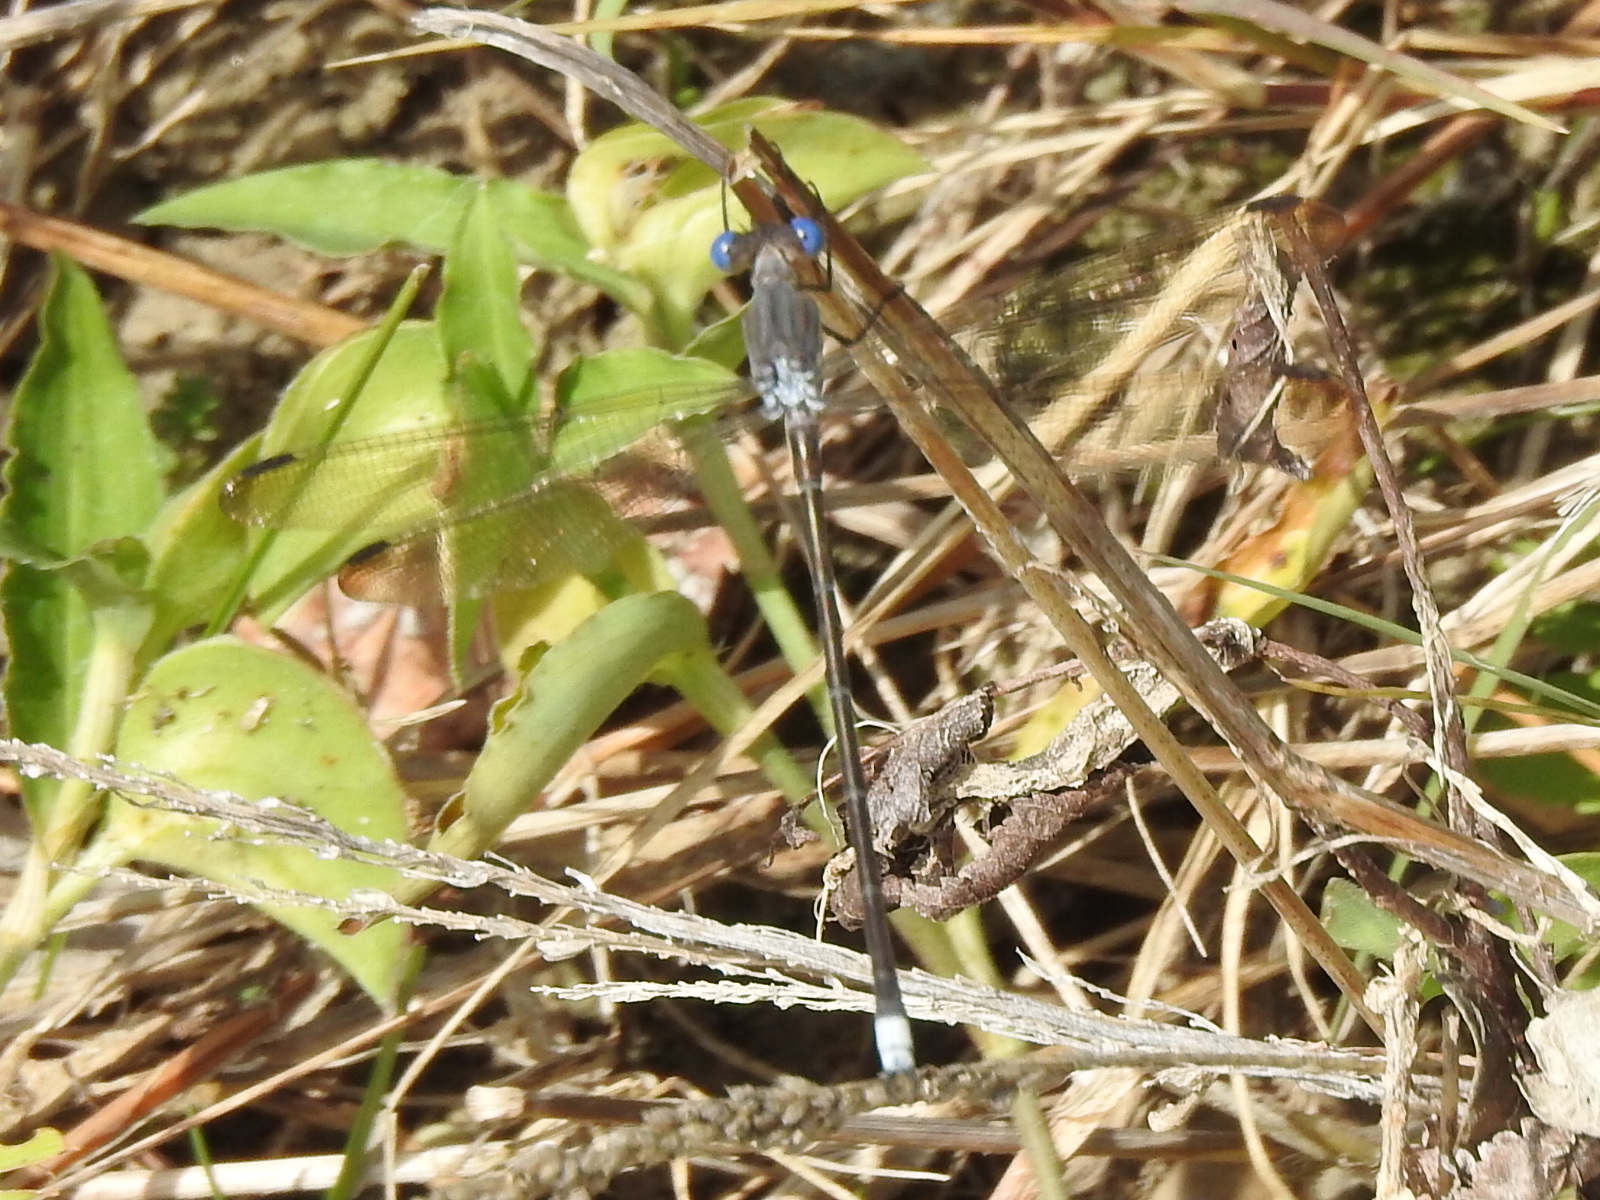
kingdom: Animalia
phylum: Arthropoda
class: Insecta
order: Odonata
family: Lestidae
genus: Archilestes
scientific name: Archilestes grandis
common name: Great spreadwing
